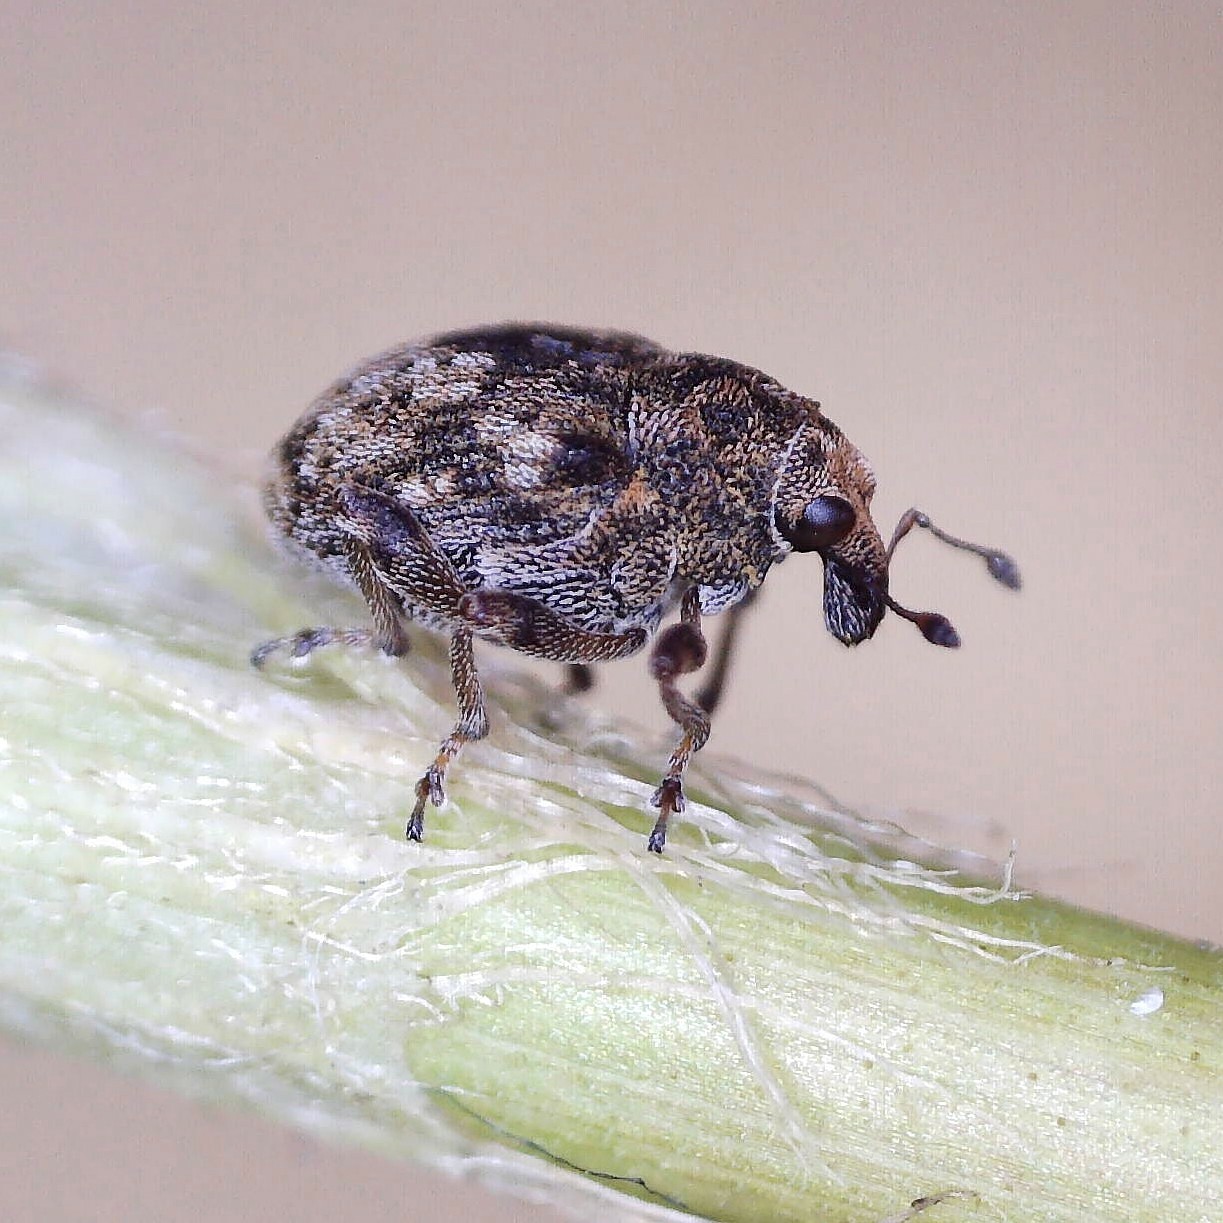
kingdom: Animalia
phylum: Arthropoda
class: Insecta
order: Coleoptera
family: Curculionidae
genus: Rhinoncus
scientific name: Rhinoncus bruchoides
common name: Weevil
